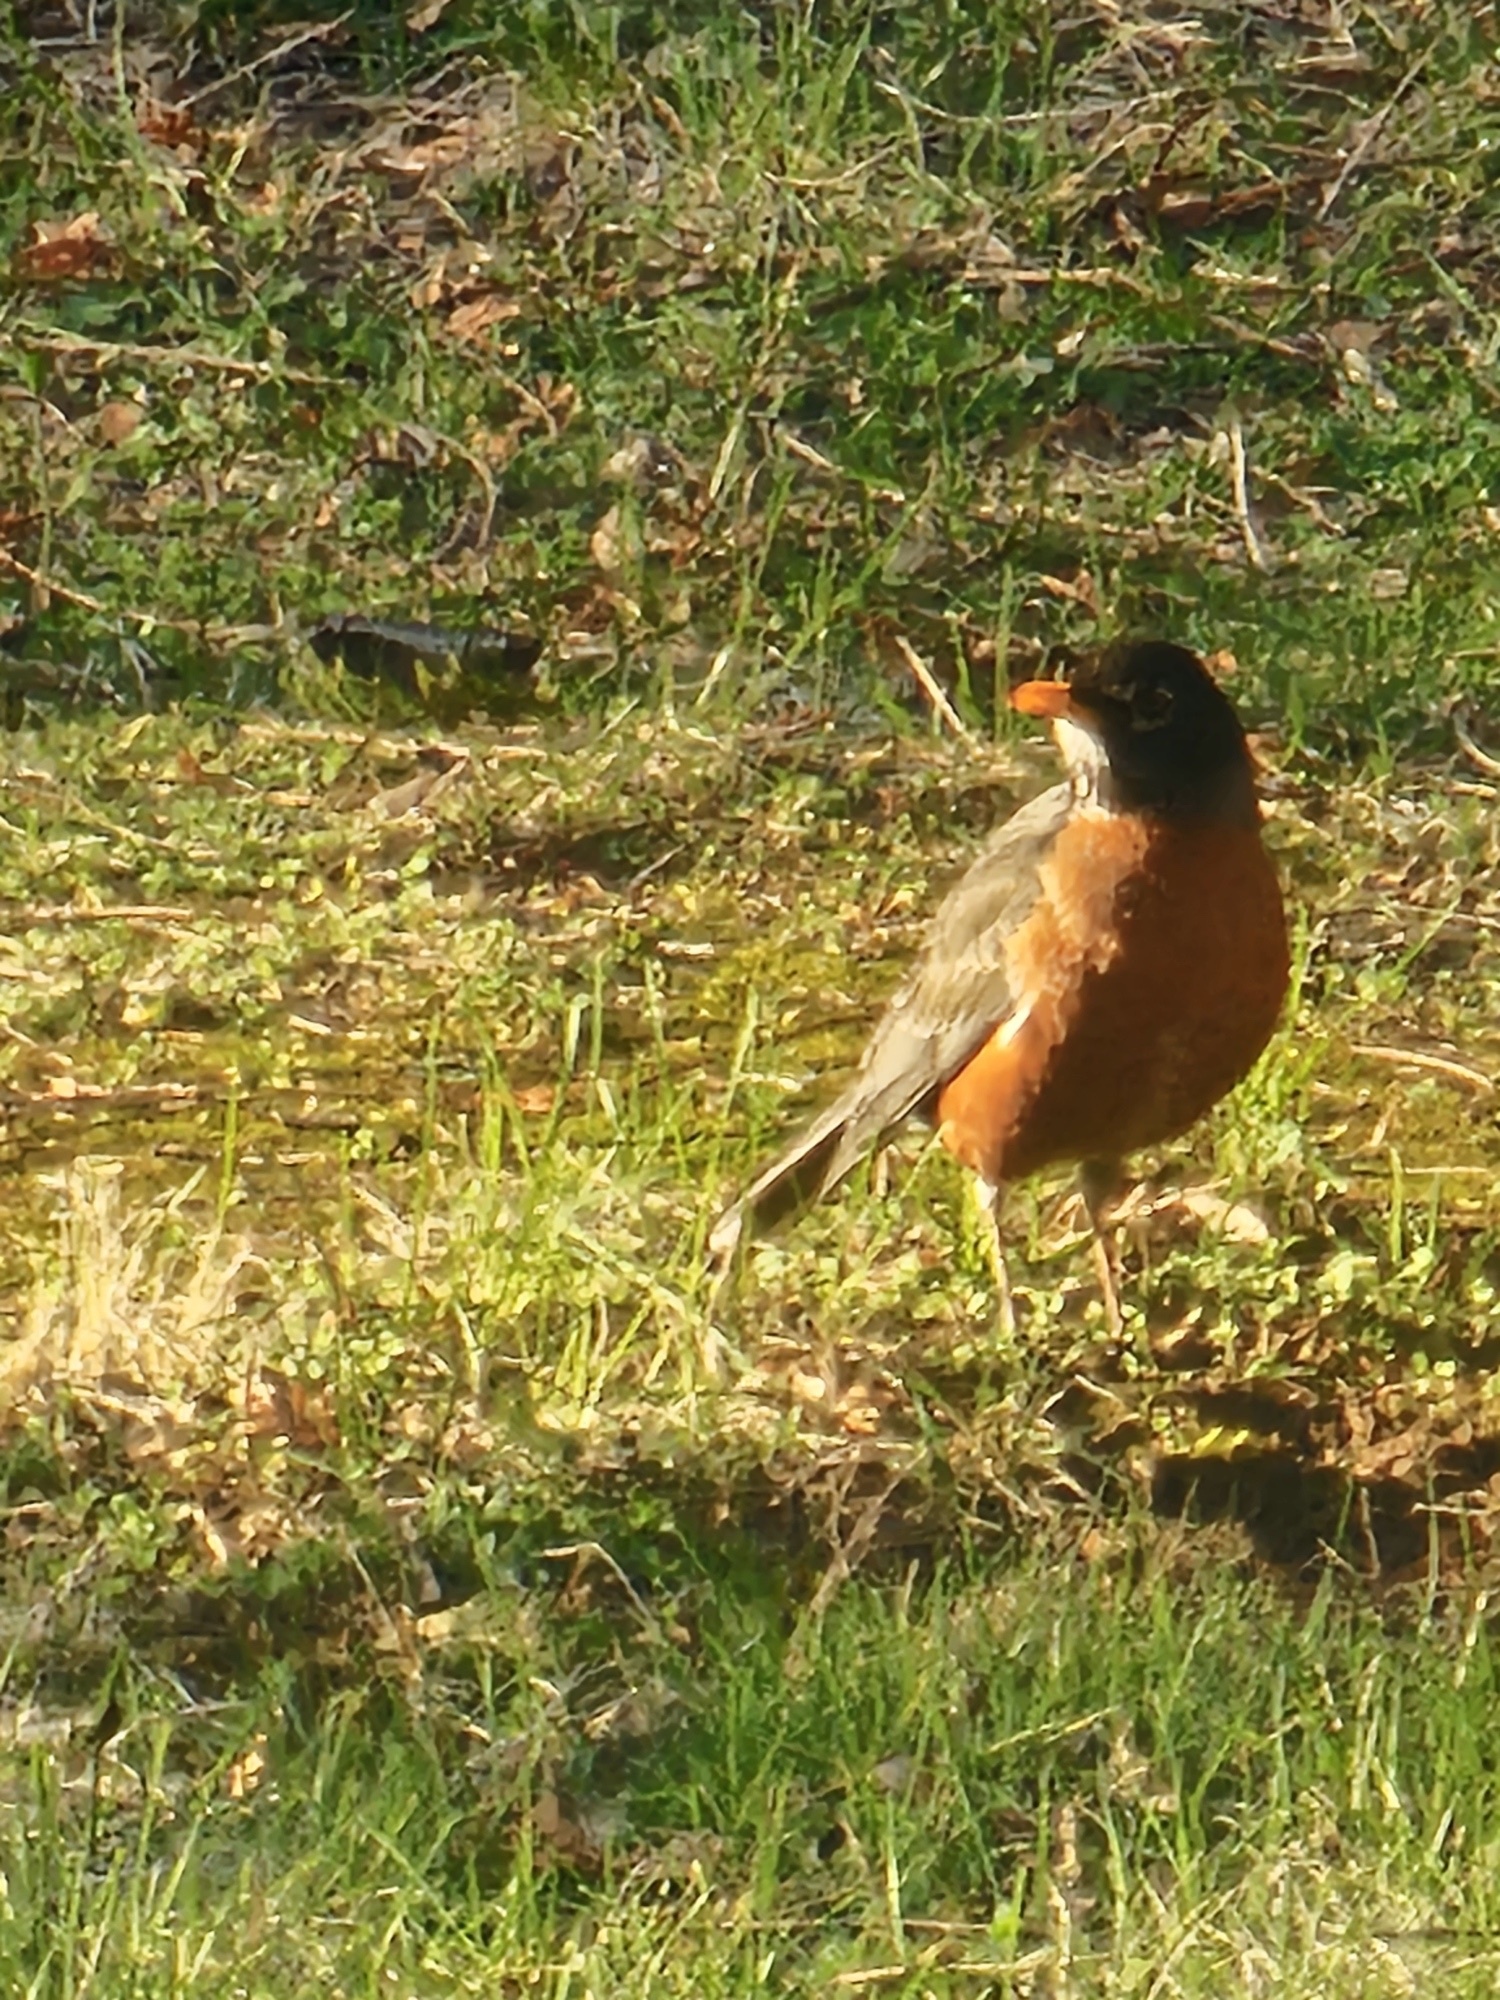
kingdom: Animalia
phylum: Chordata
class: Aves
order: Passeriformes
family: Turdidae
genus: Turdus
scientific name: Turdus migratorius
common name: American robin
